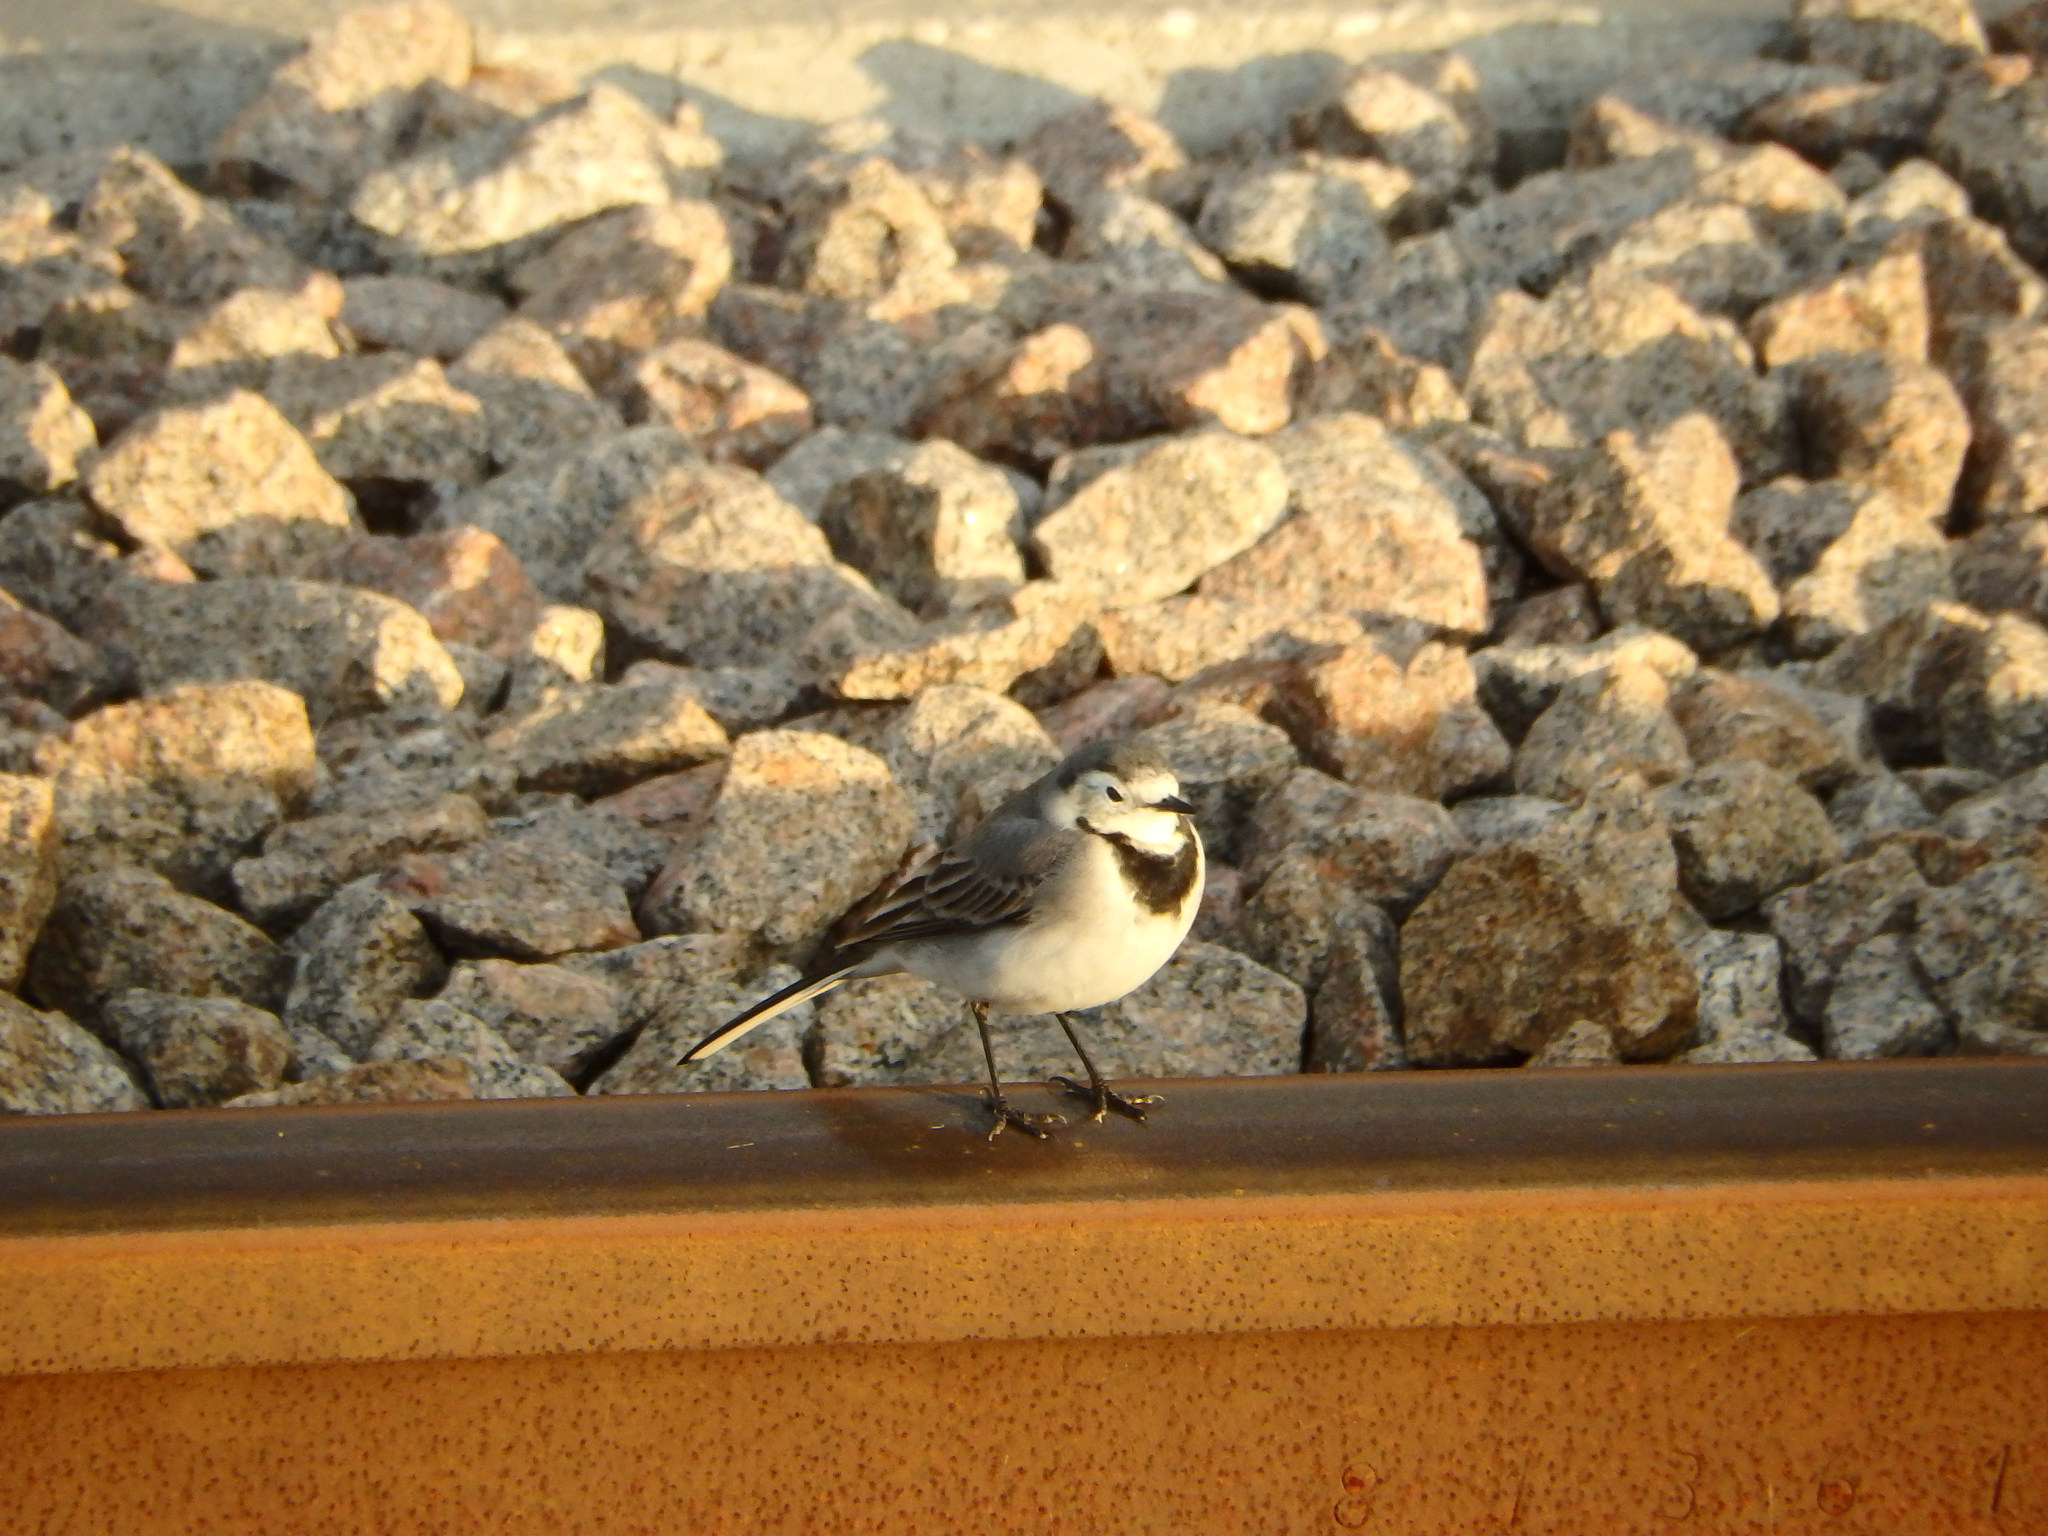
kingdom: Animalia
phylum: Chordata
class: Aves
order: Passeriformes
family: Motacillidae
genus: Motacilla
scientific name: Motacilla alba
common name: White wagtail
